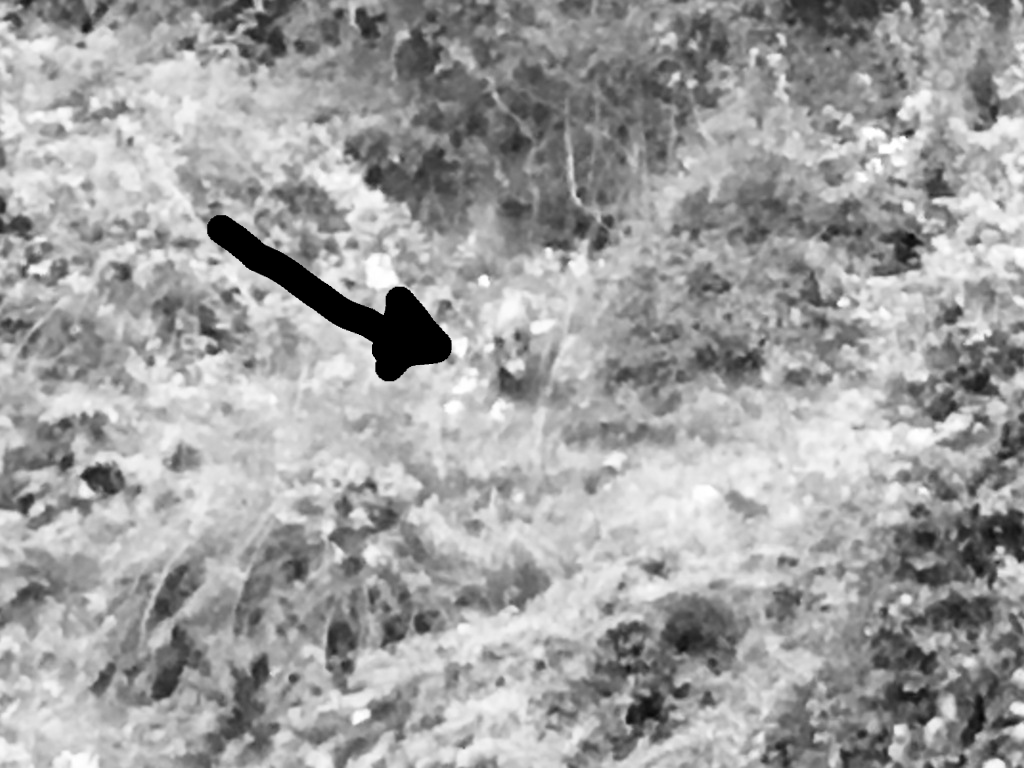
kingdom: Animalia
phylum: Chordata
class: Mammalia
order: Artiodactyla
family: Suidae
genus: Sus
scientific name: Sus scrofa
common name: Wild boar
